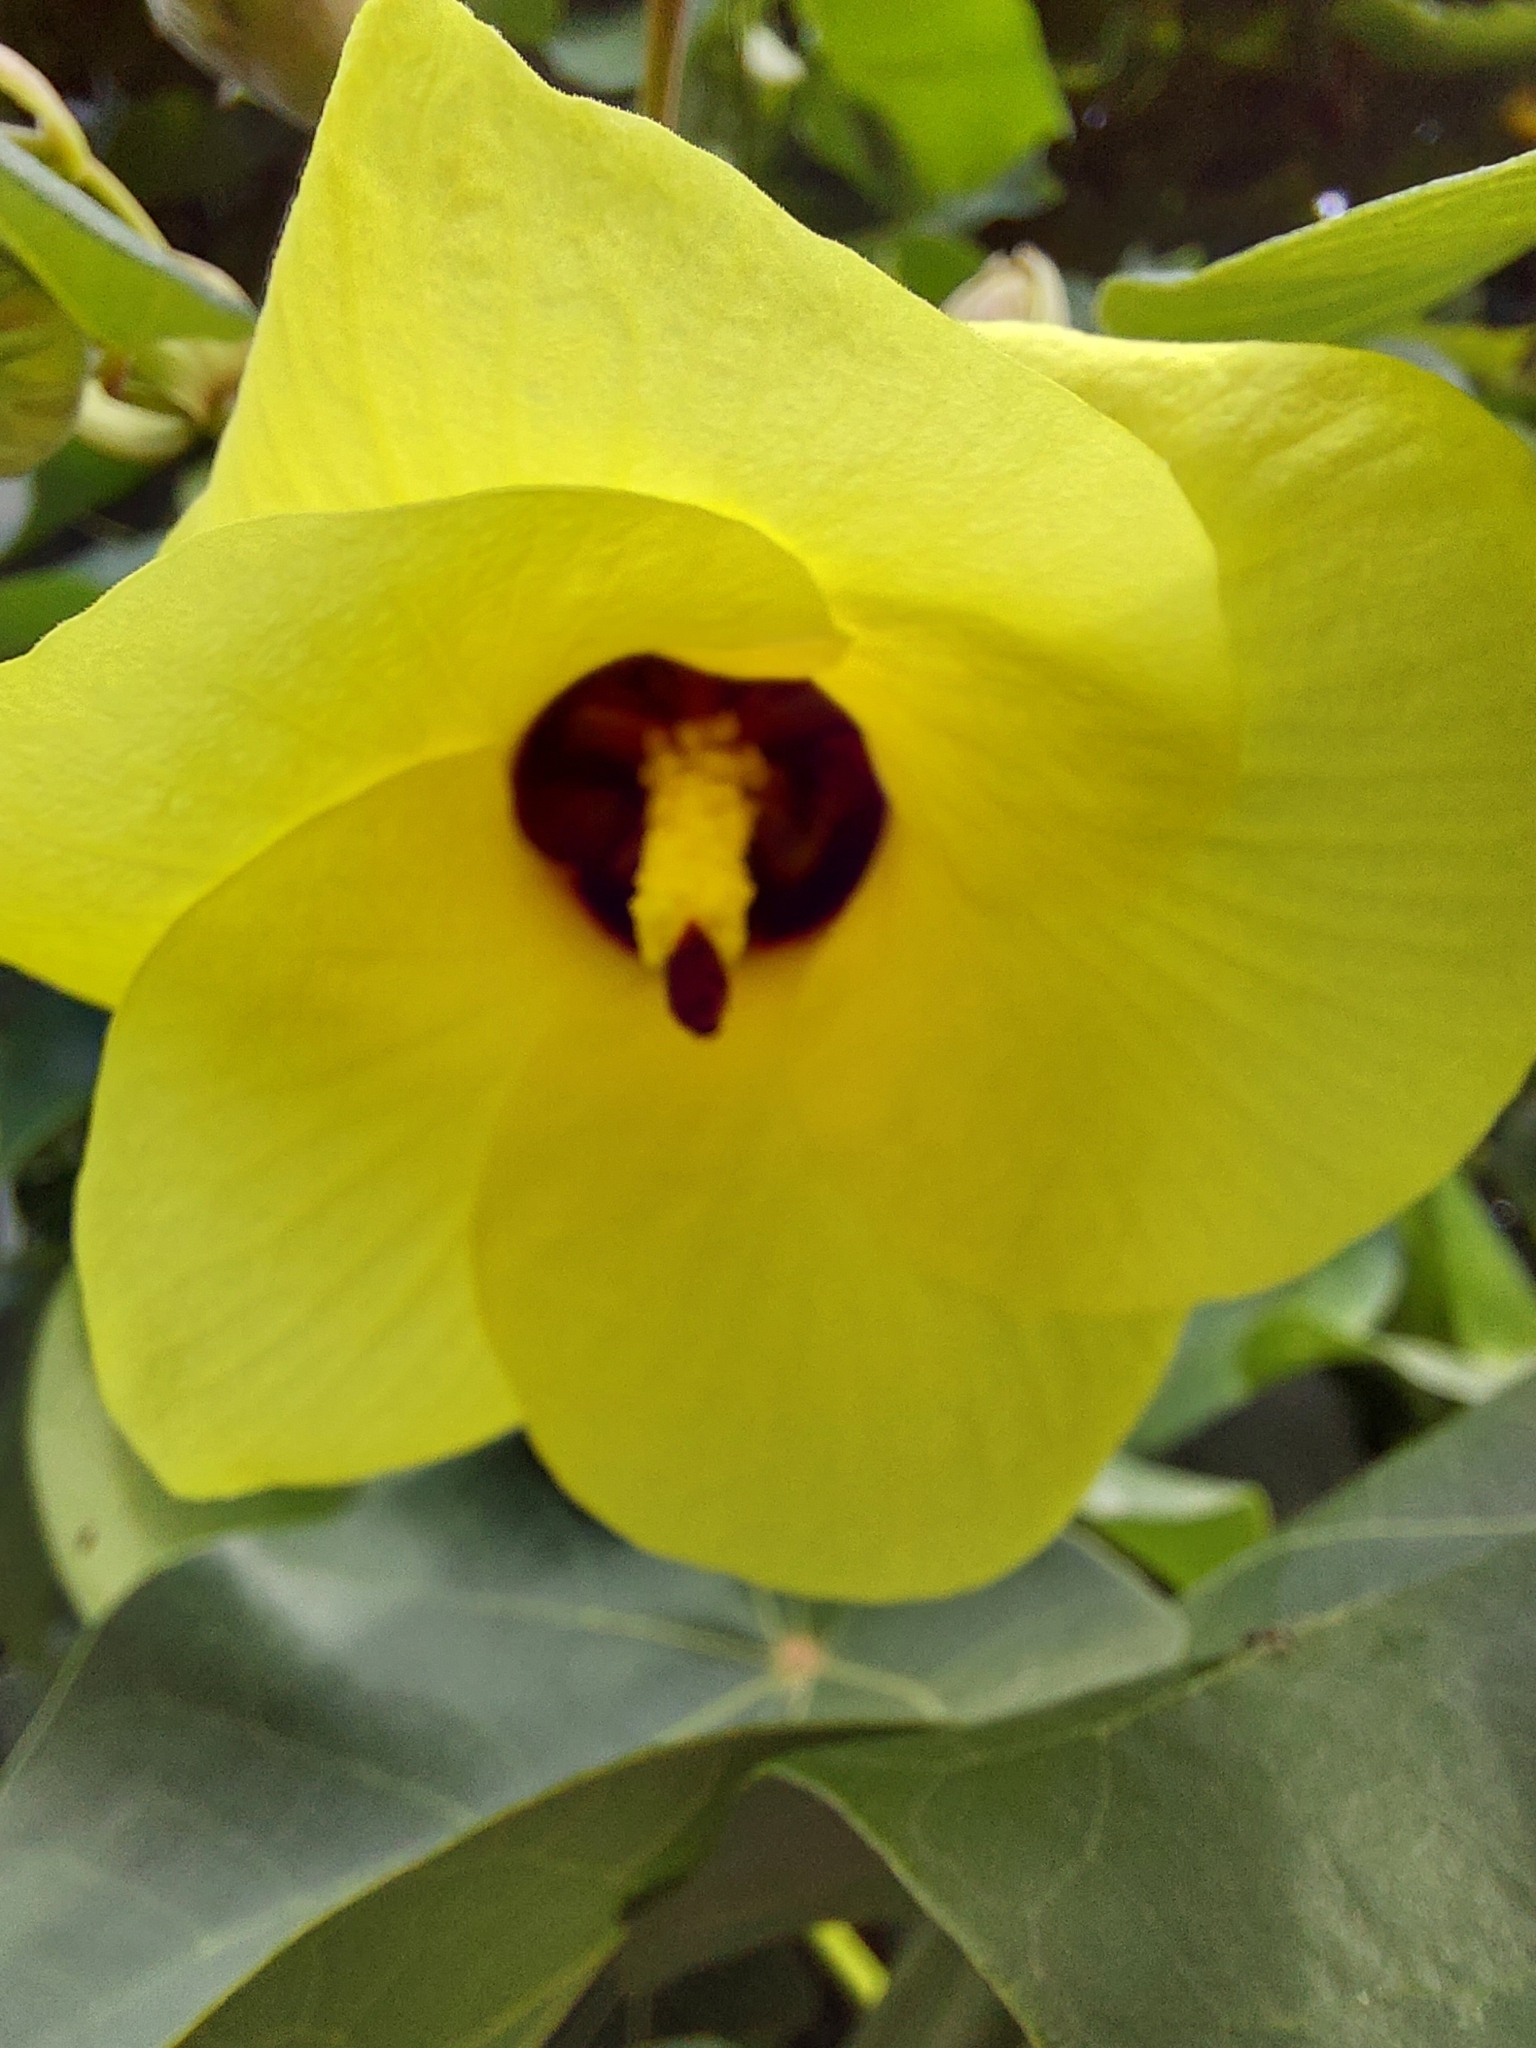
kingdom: Plantae
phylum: Tracheophyta
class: Magnoliopsida
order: Malvales
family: Malvaceae
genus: Talipariti
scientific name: Talipariti tiliaceum
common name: Sea hibiscus
